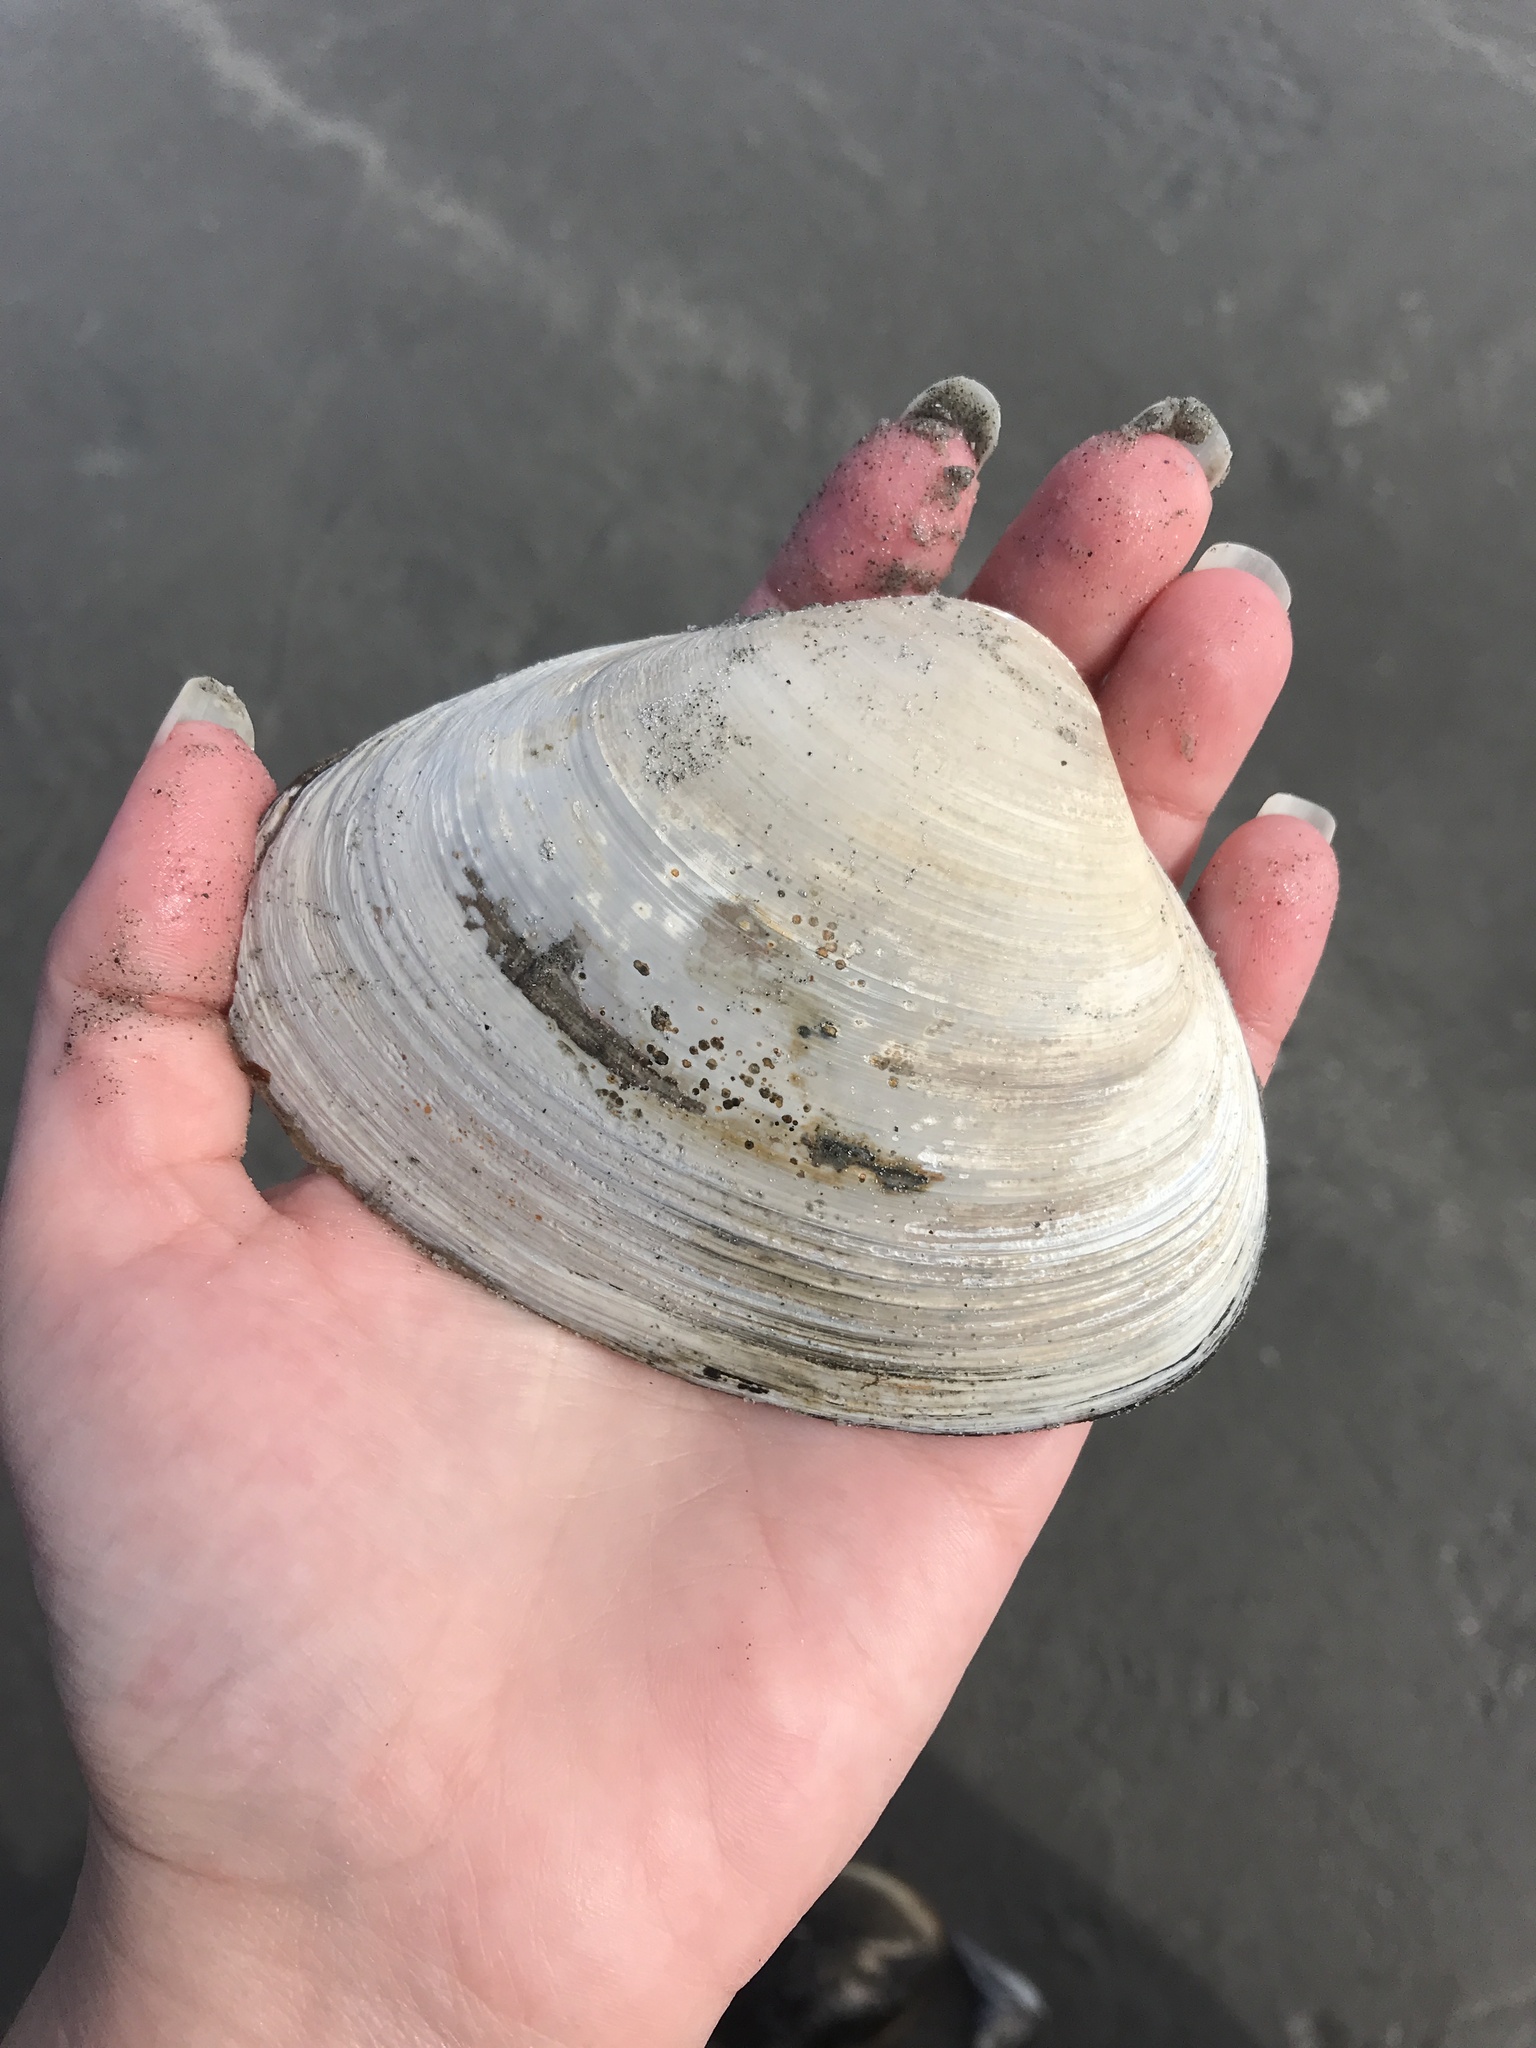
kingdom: Animalia
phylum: Mollusca
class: Bivalvia
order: Venerida
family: Mactridae
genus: Spisula
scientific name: Spisula solidissima
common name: Atlantic surf clam
